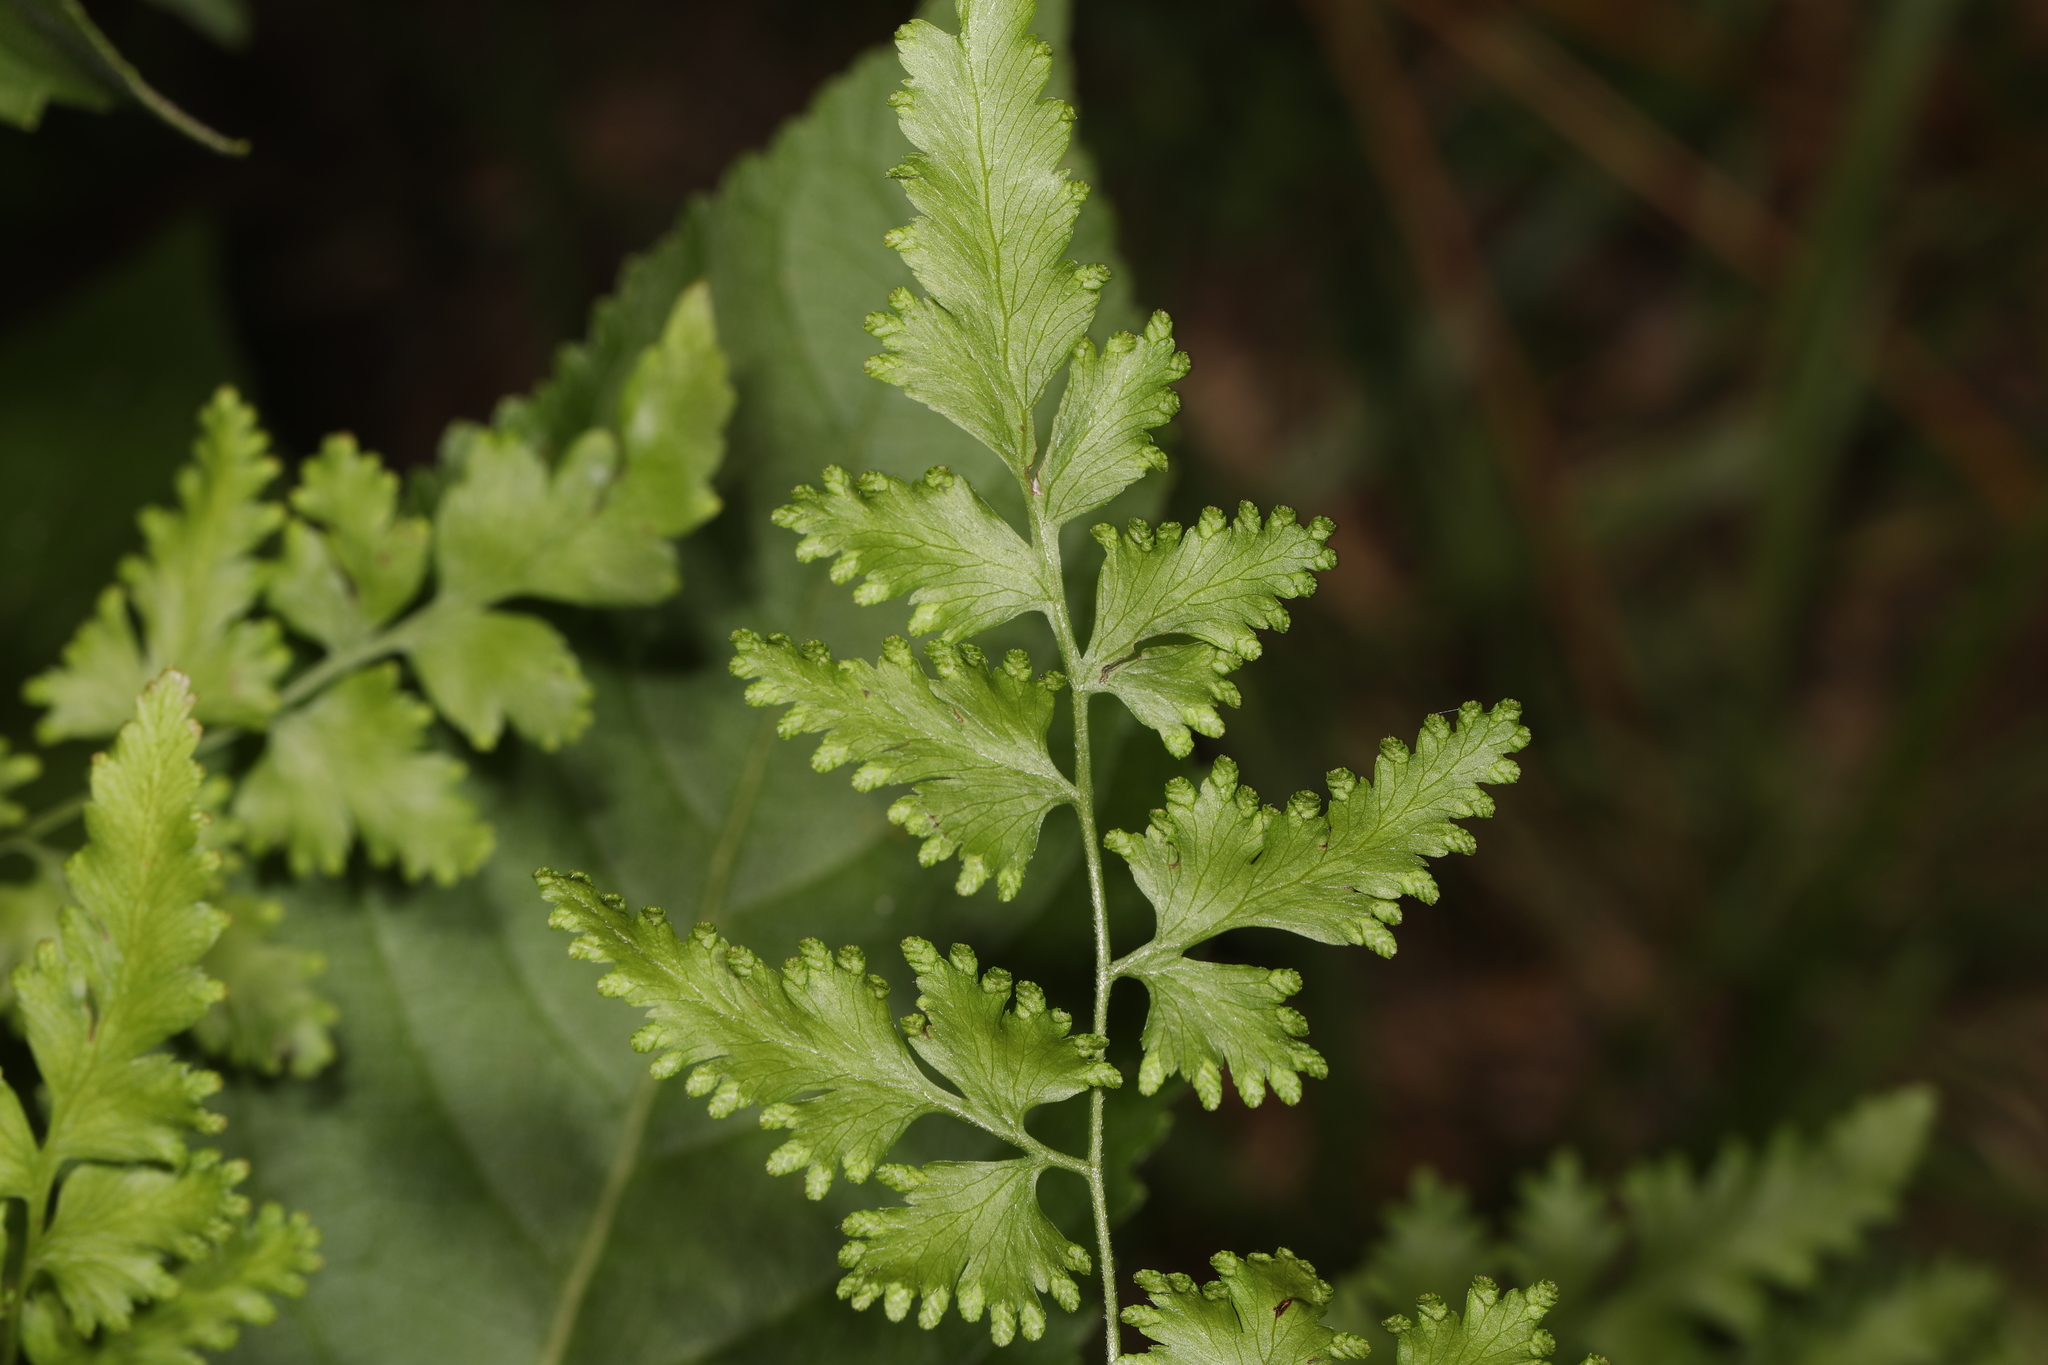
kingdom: Plantae
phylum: Tracheophyta
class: Polypodiopsida
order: Schizaeales
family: Lygodiaceae
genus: Lygodium
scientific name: Lygodium japonicum
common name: Japanese climbing fern
